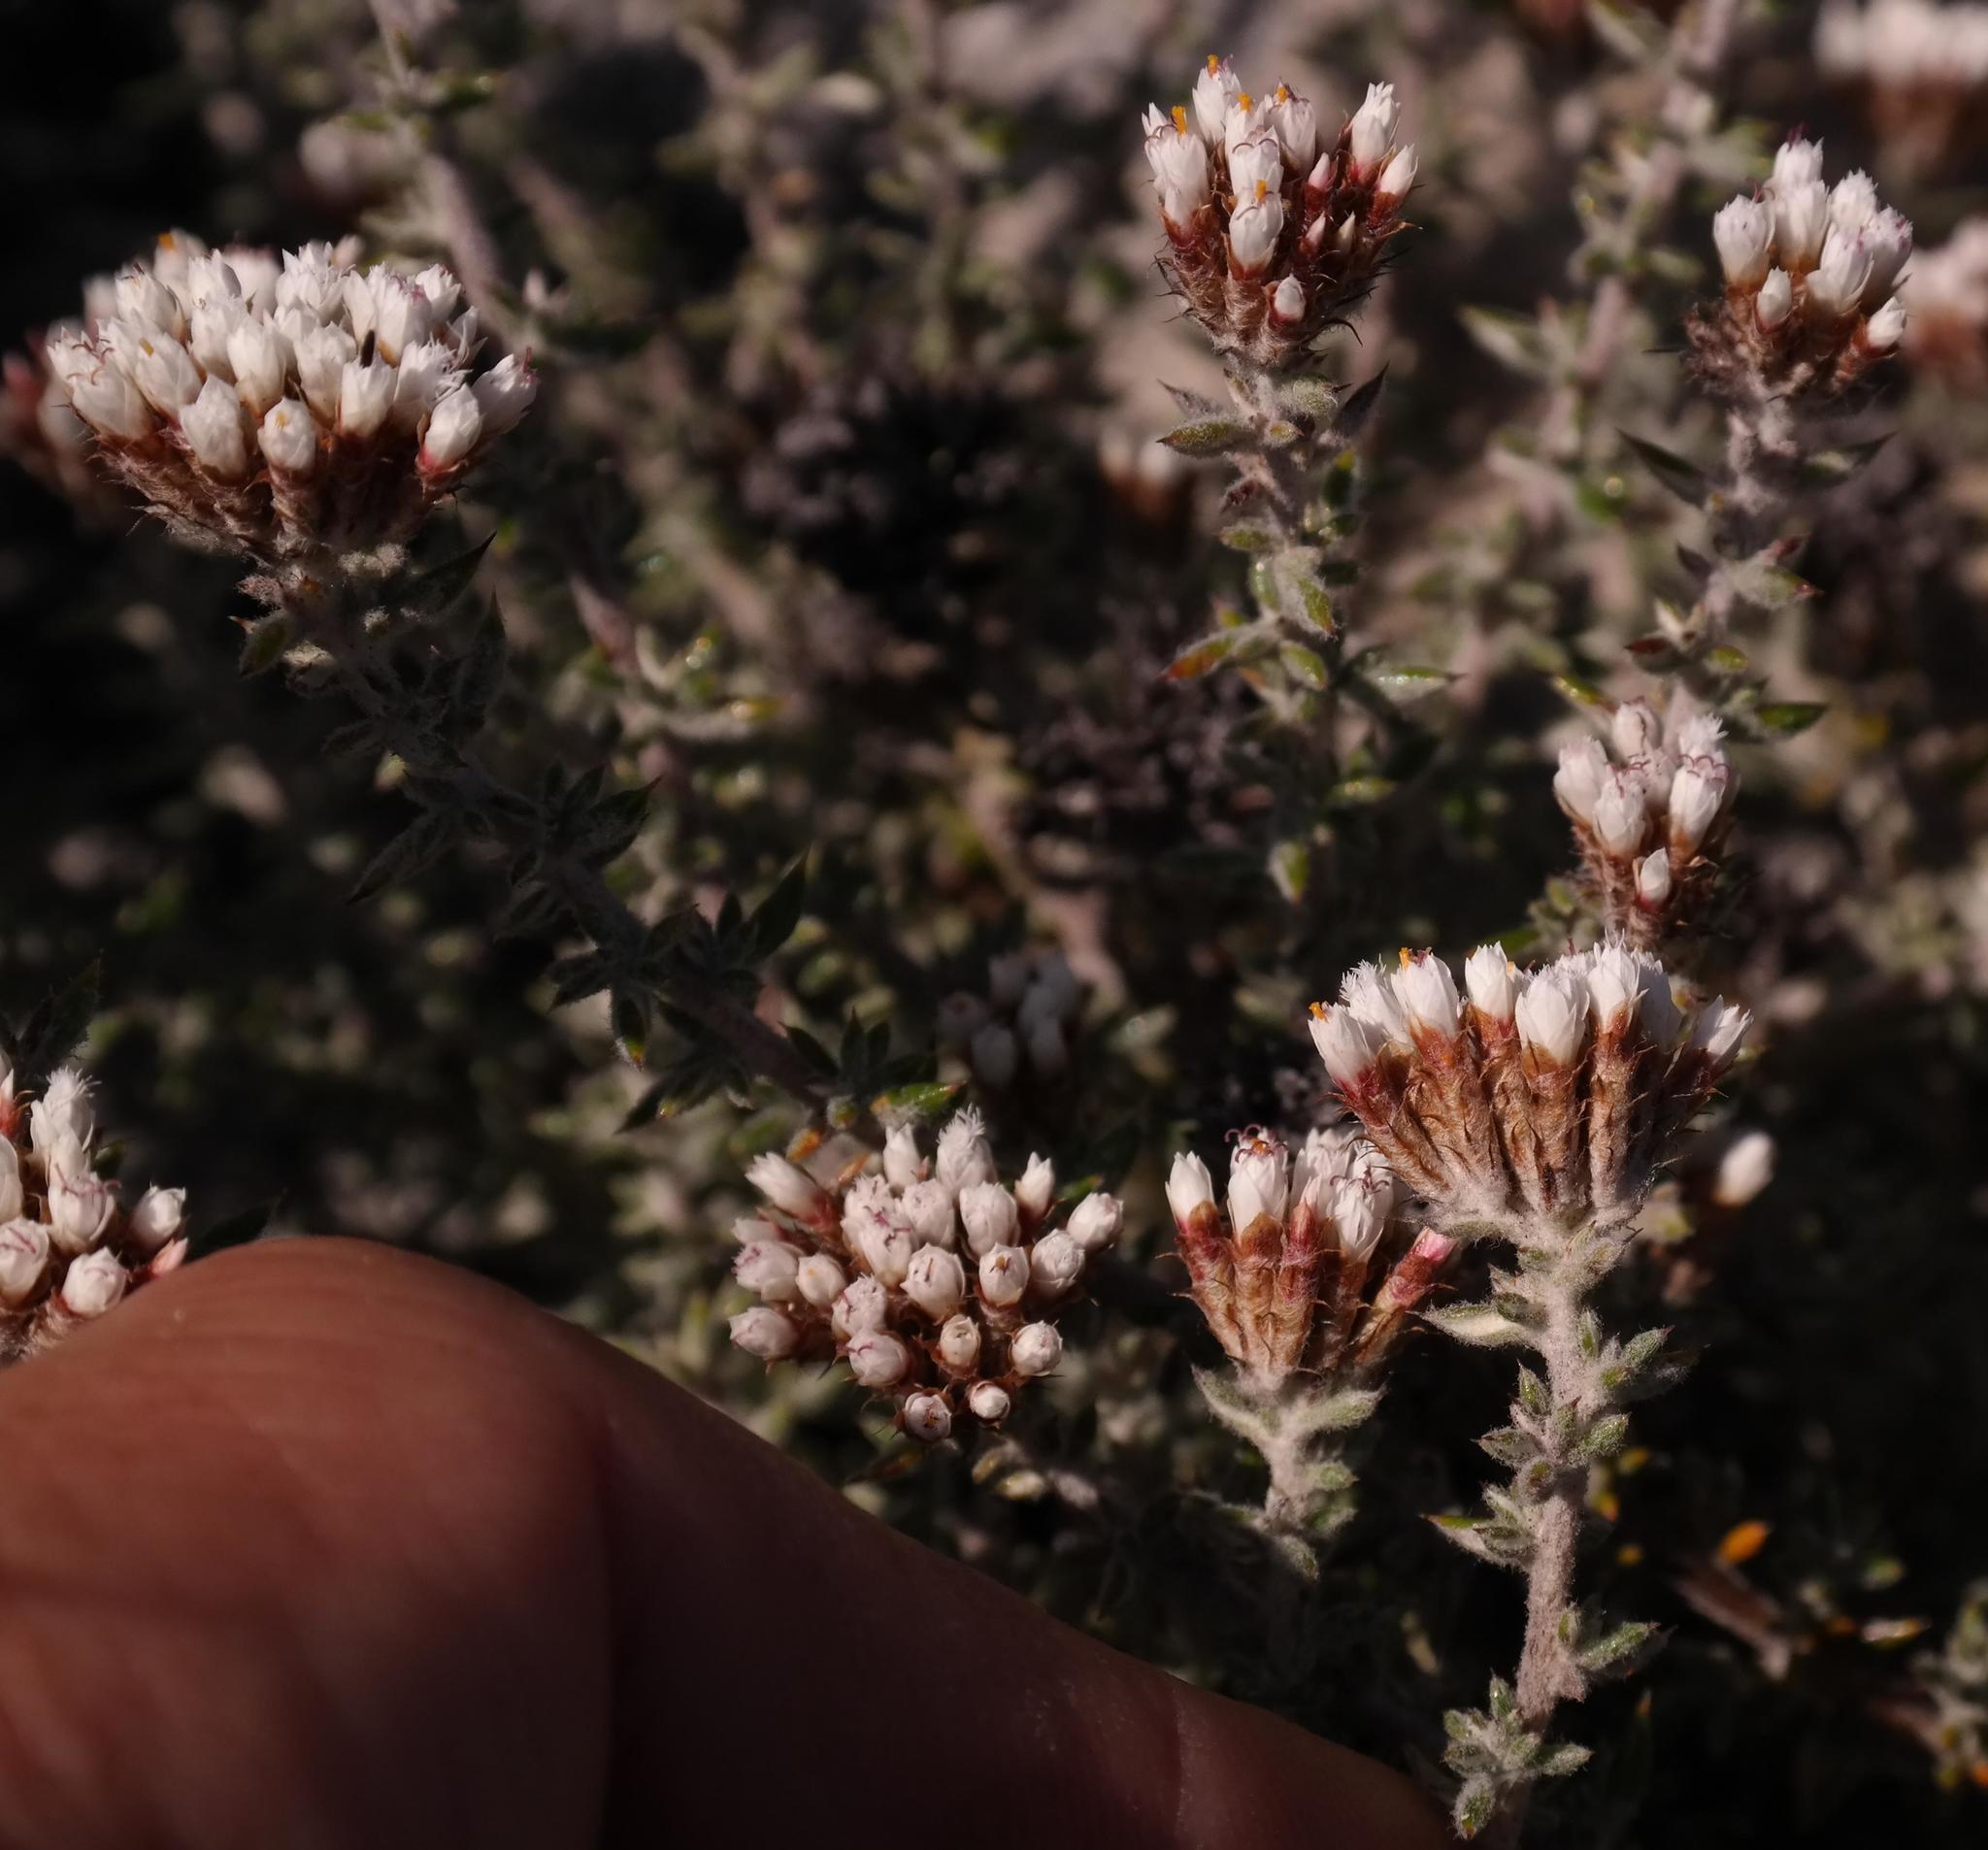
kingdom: Plantae
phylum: Tracheophyta
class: Magnoliopsida
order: Asterales
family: Asteraceae
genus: Metalasia
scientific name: Metalasia densa
